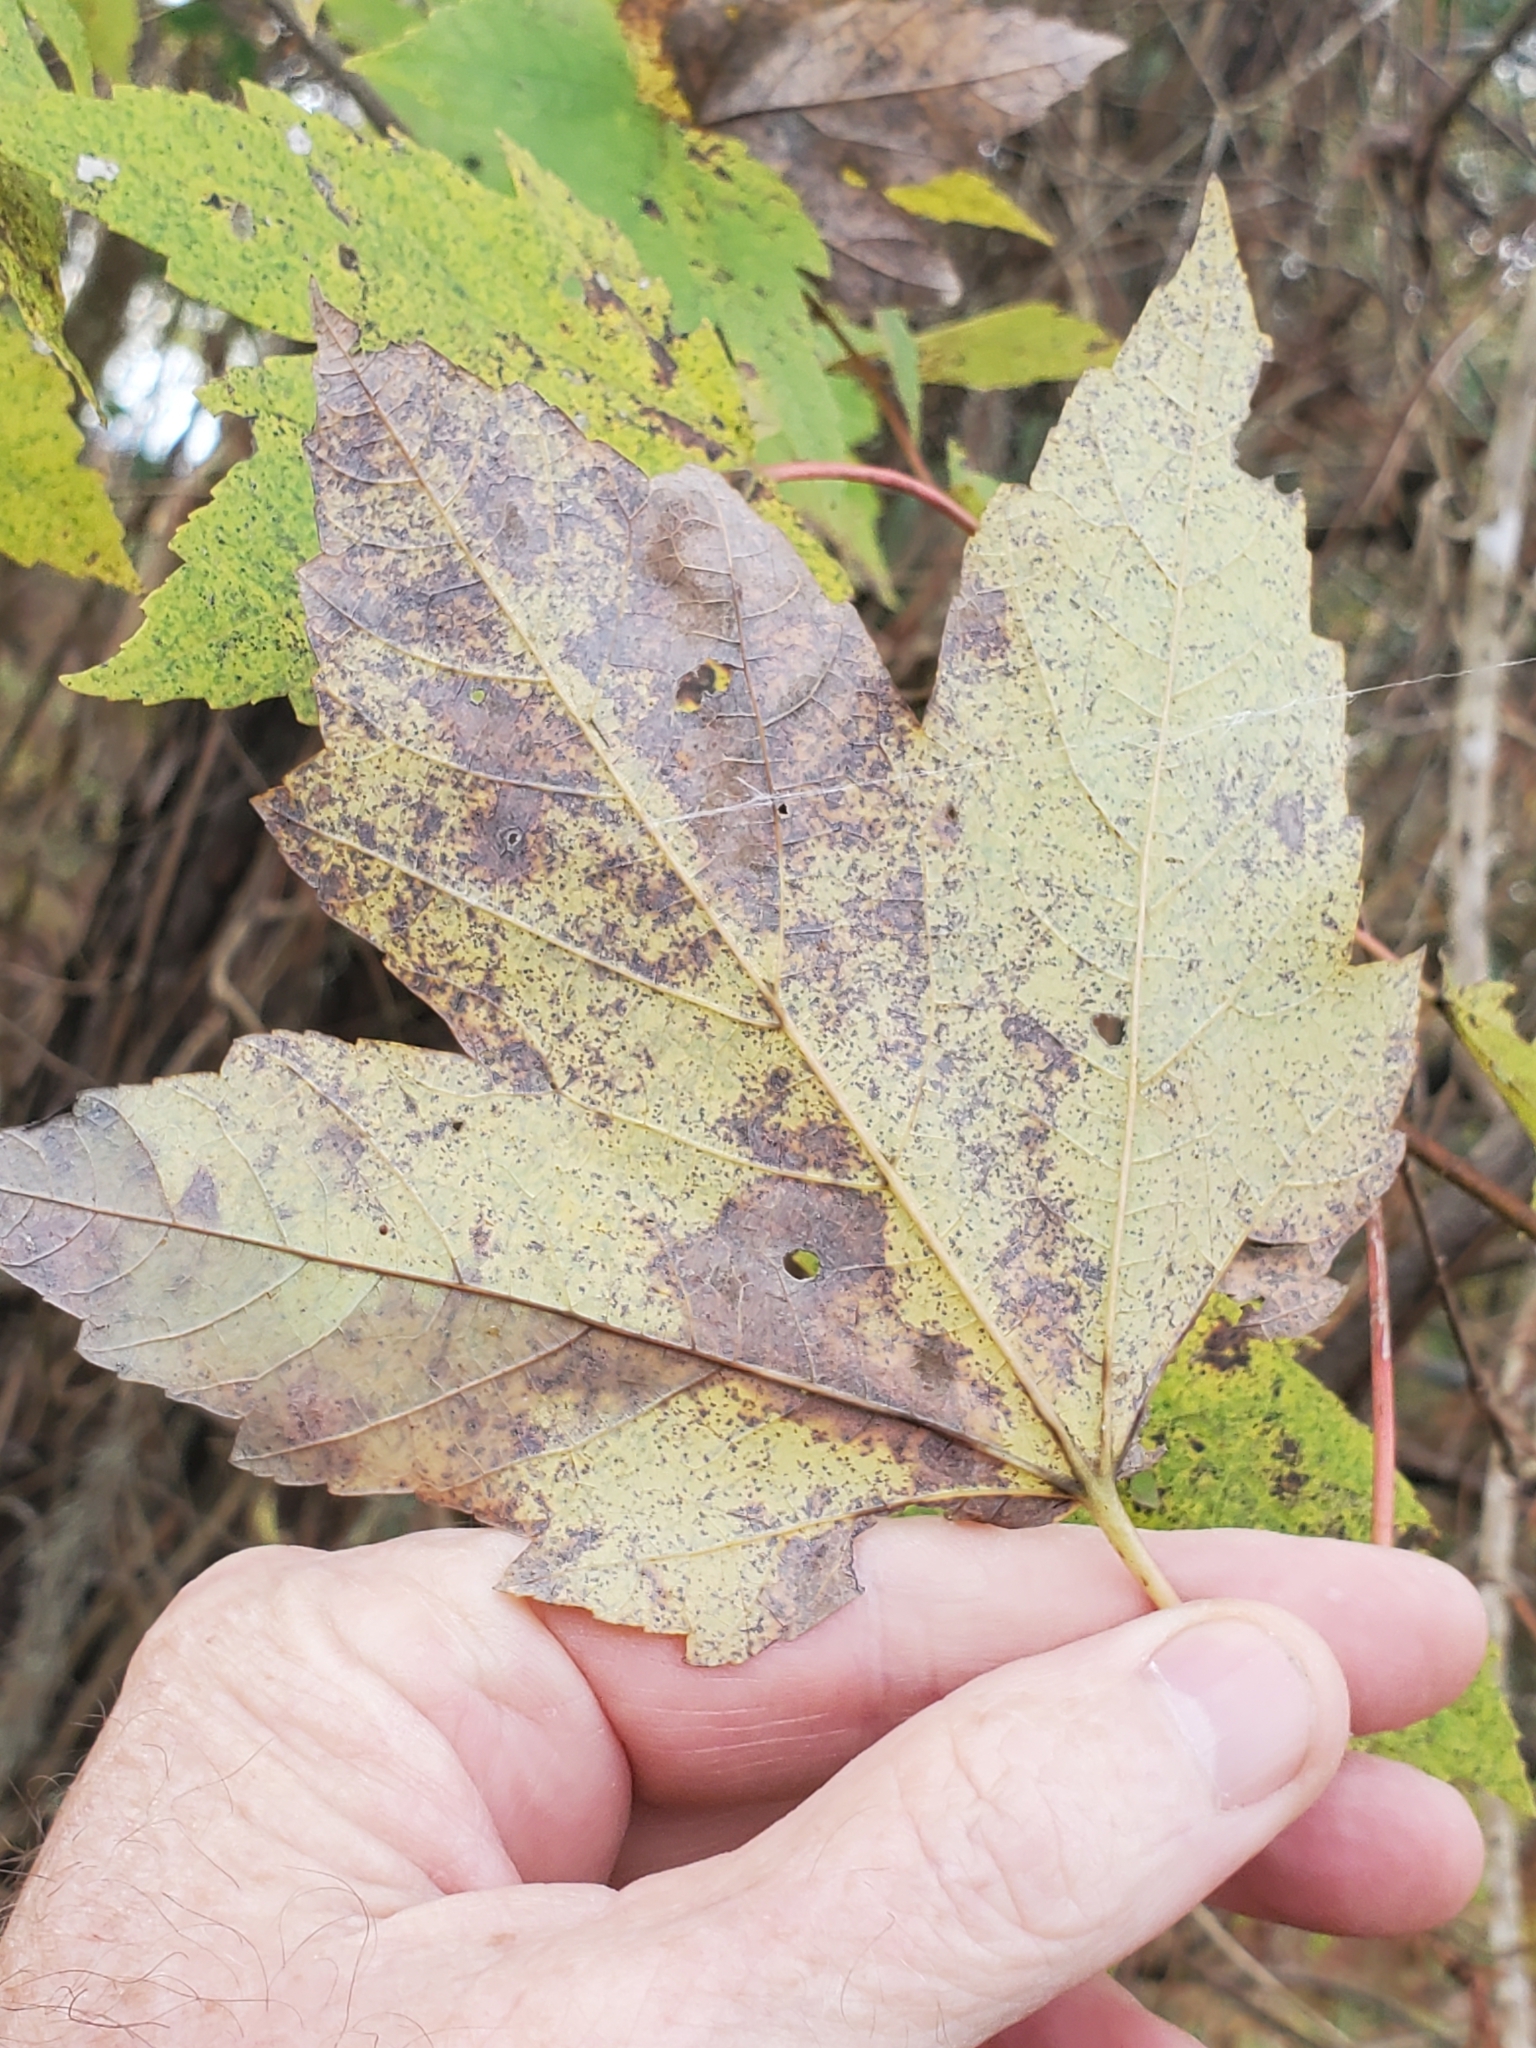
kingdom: Plantae
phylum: Tracheophyta
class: Magnoliopsida
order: Sapindales
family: Sapindaceae
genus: Acer
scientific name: Acer rubrum
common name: Red maple
